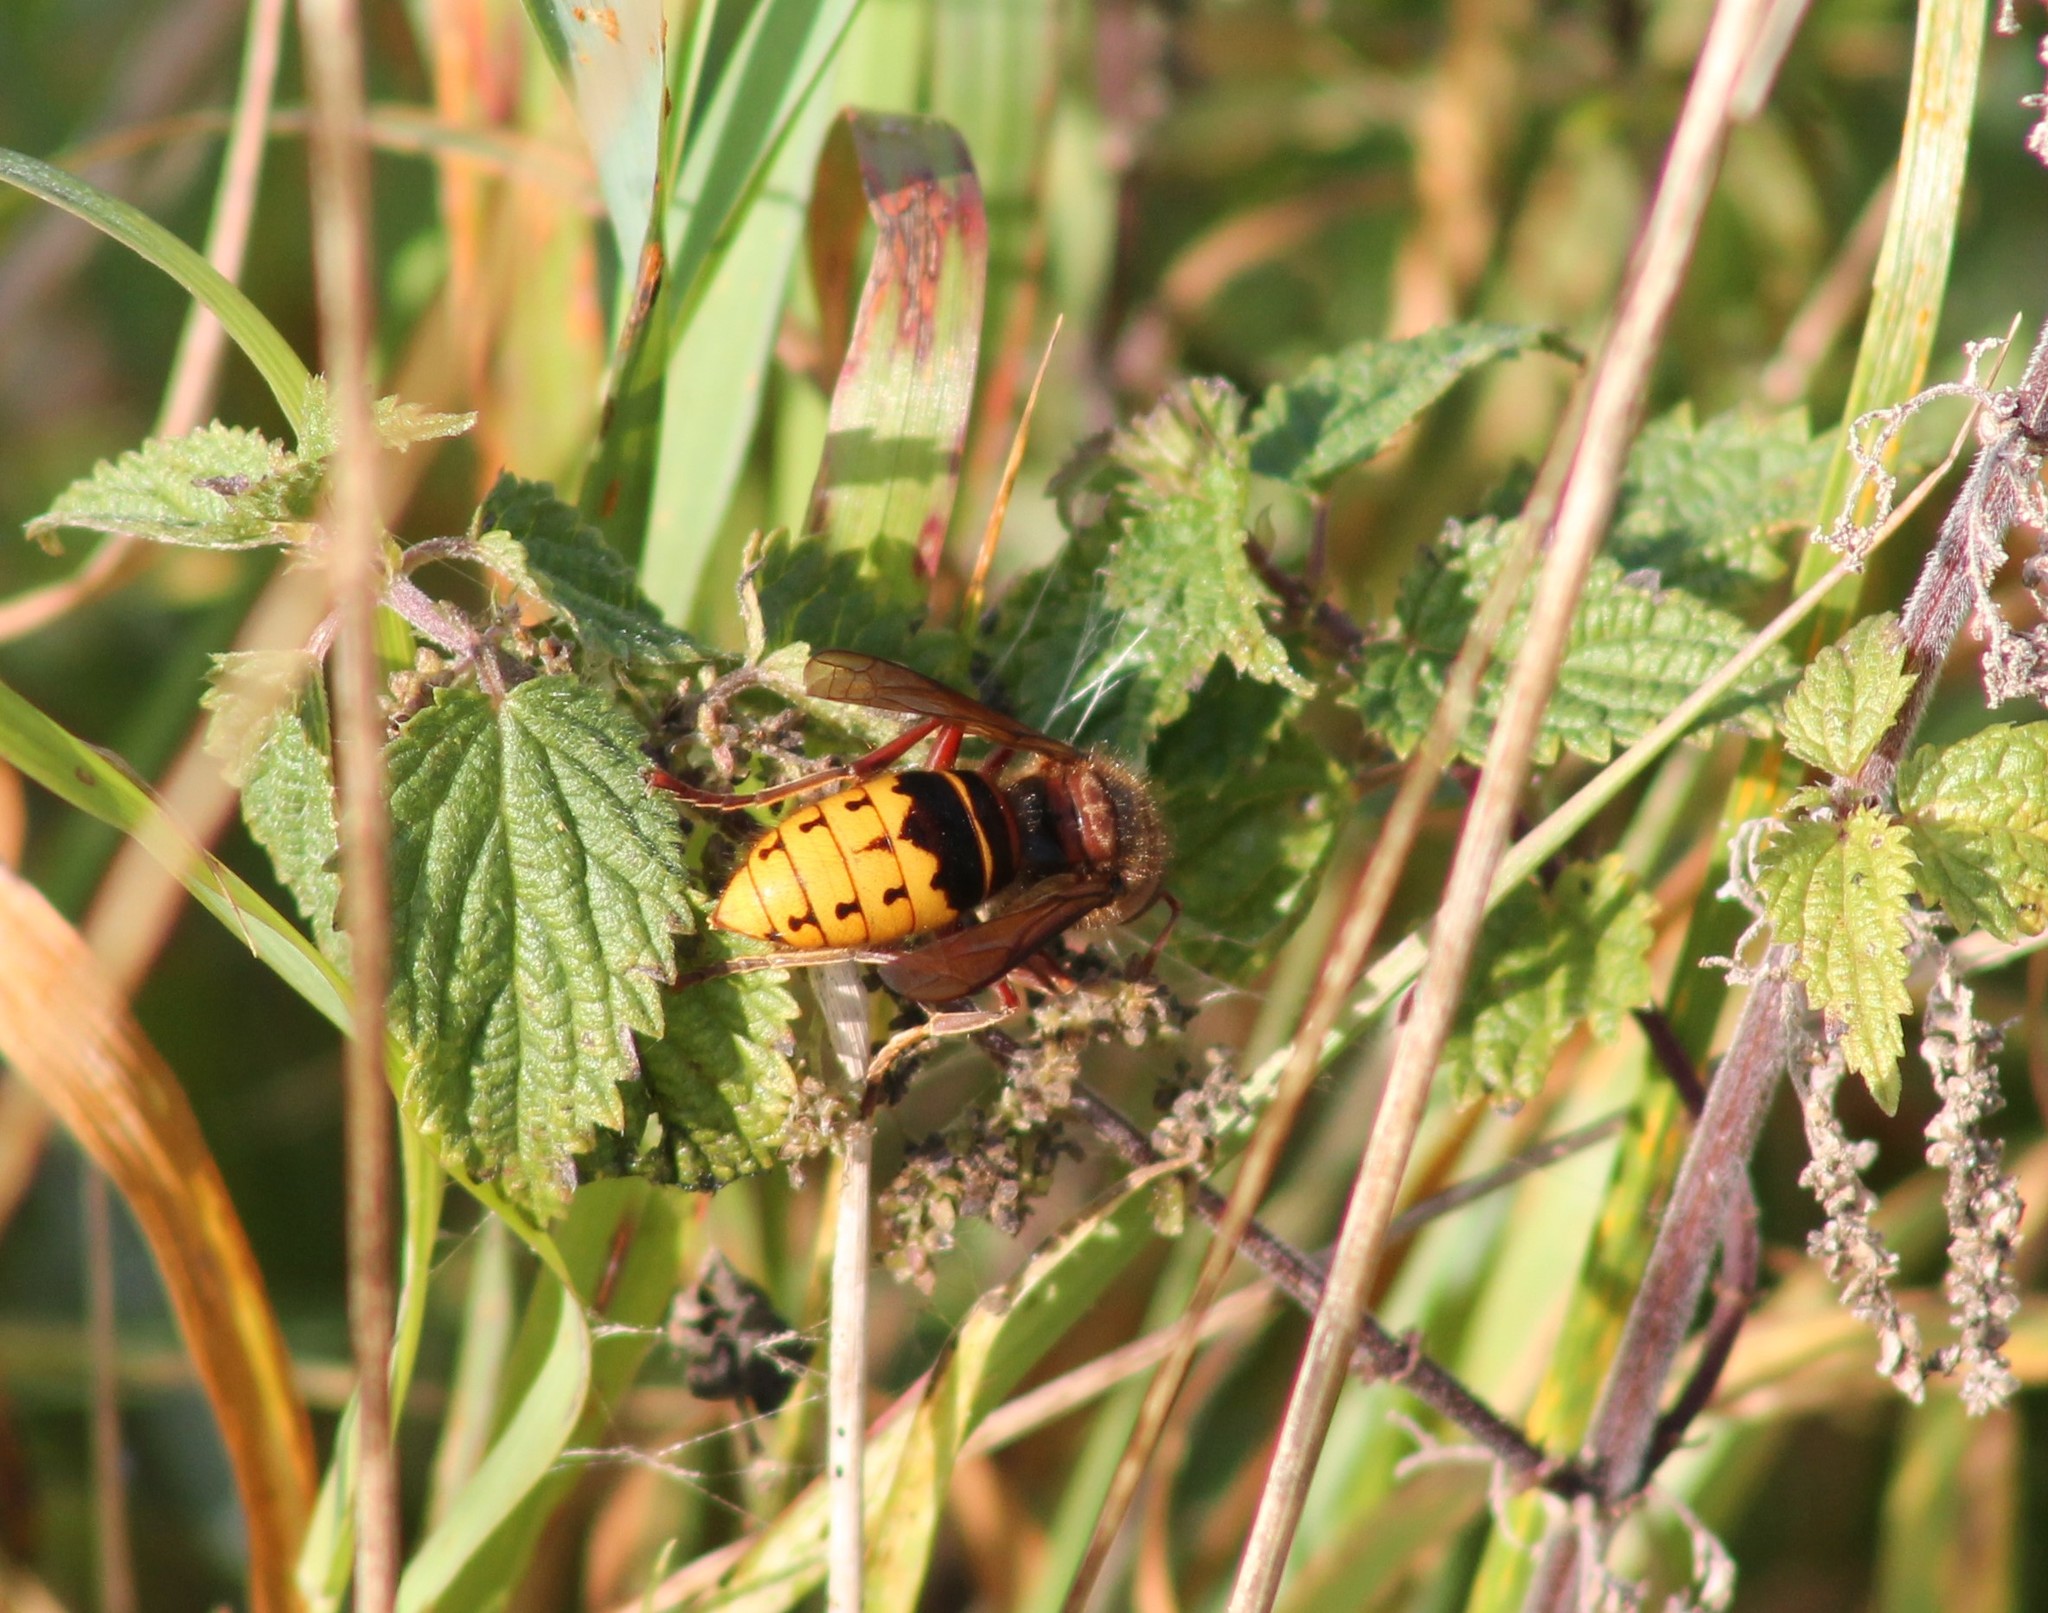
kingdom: Animalia
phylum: Arthropoda
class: Insecta
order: Hymenoptera
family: Vespidae
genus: Vespa
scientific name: Vespa crabro
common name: Hornet
